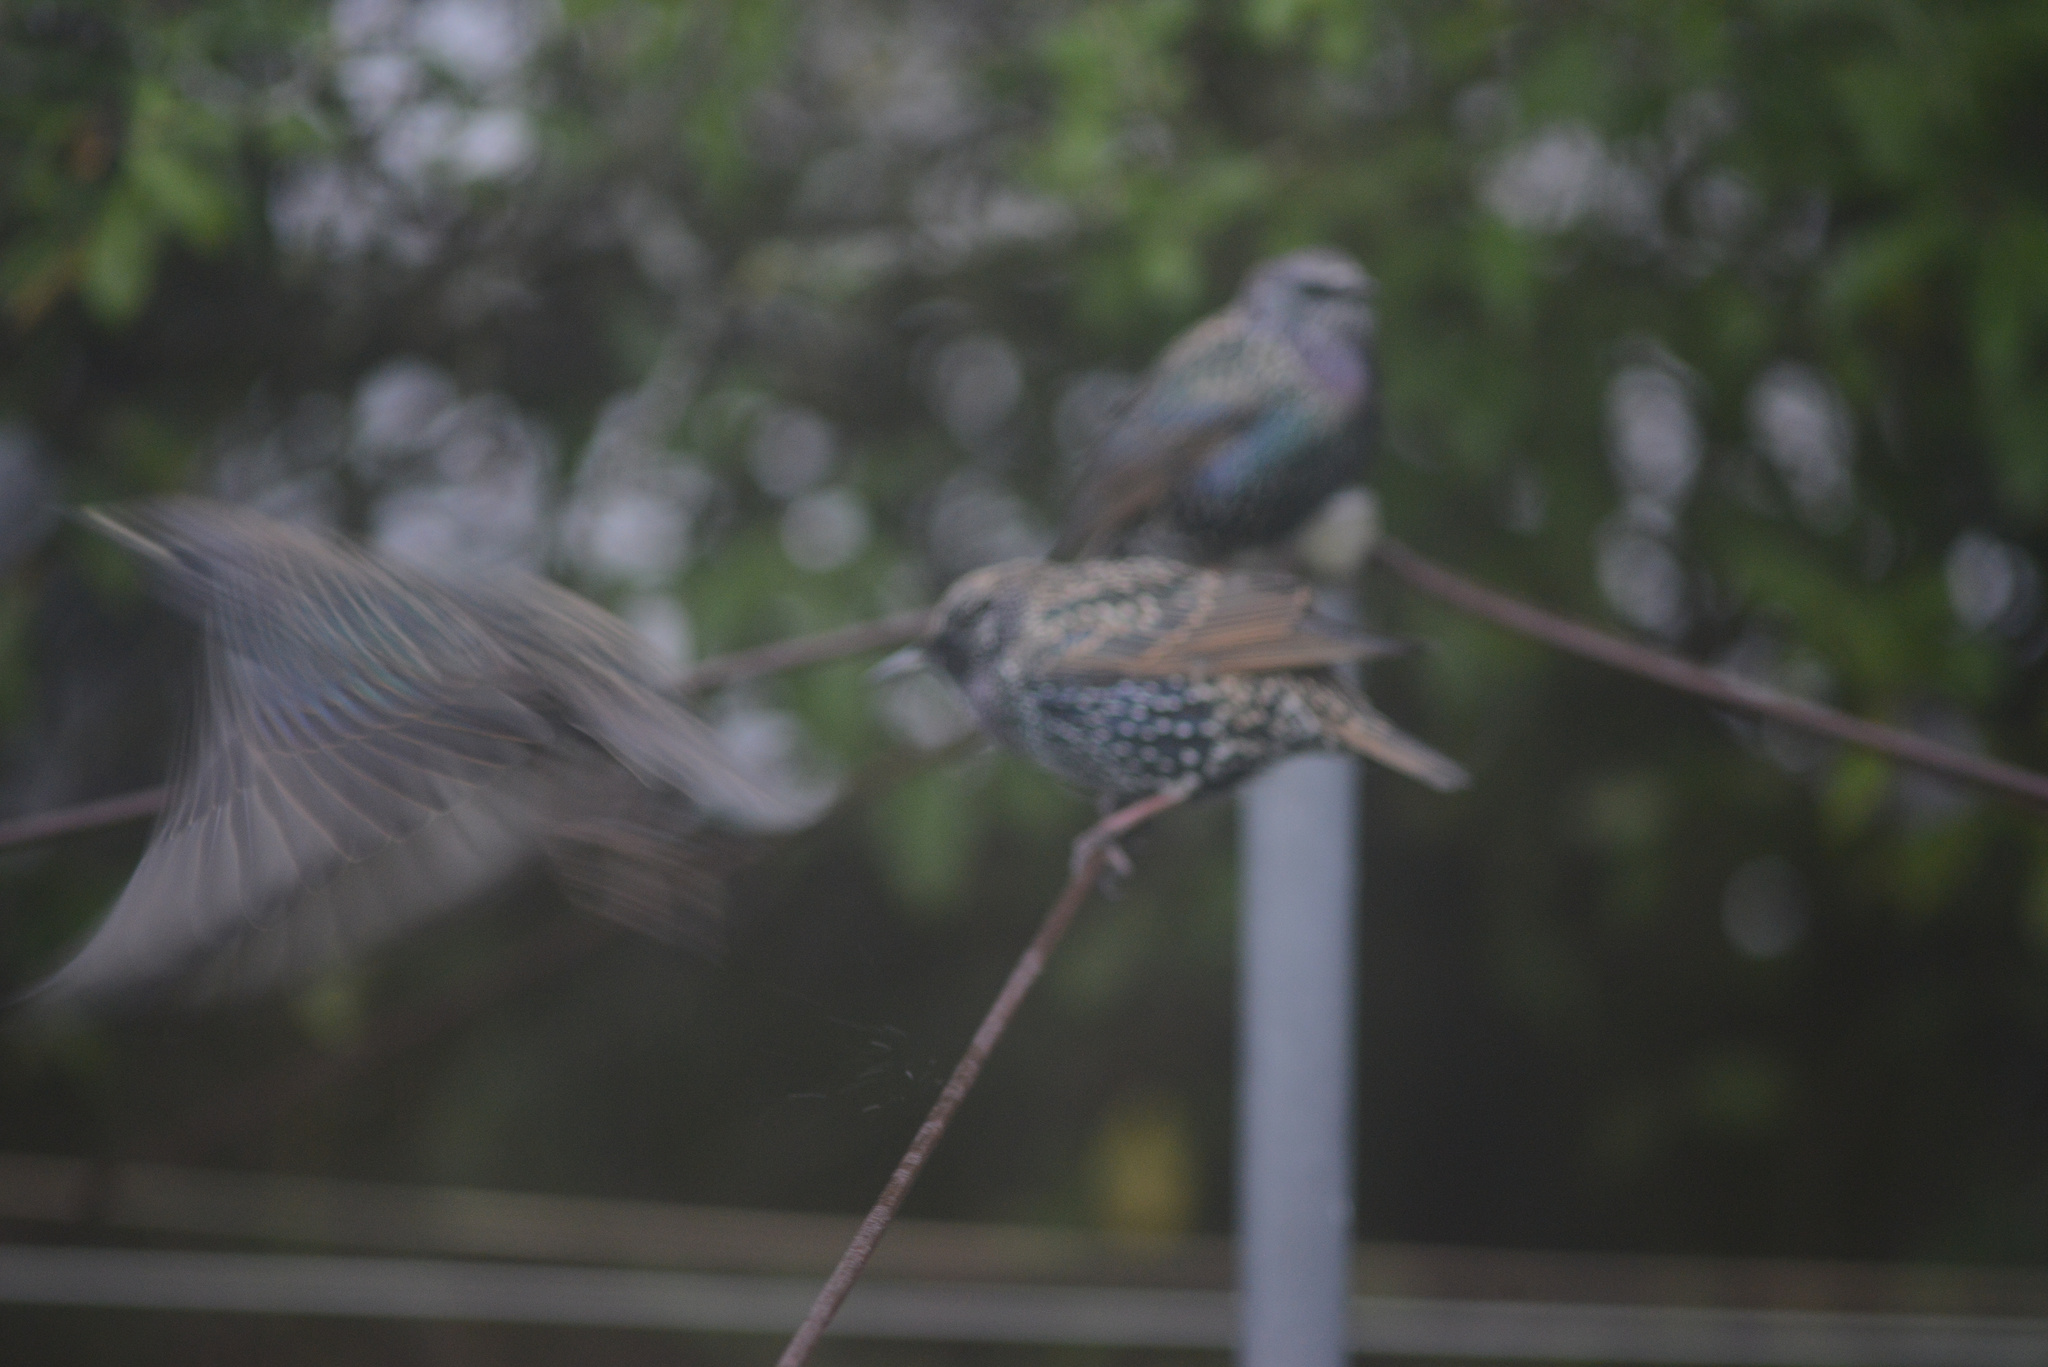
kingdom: Animalia
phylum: Chordata
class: Aves
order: Passeriformes
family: Sturnidae
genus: Sturnus
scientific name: Sturnus vulgaris
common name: Common starling
